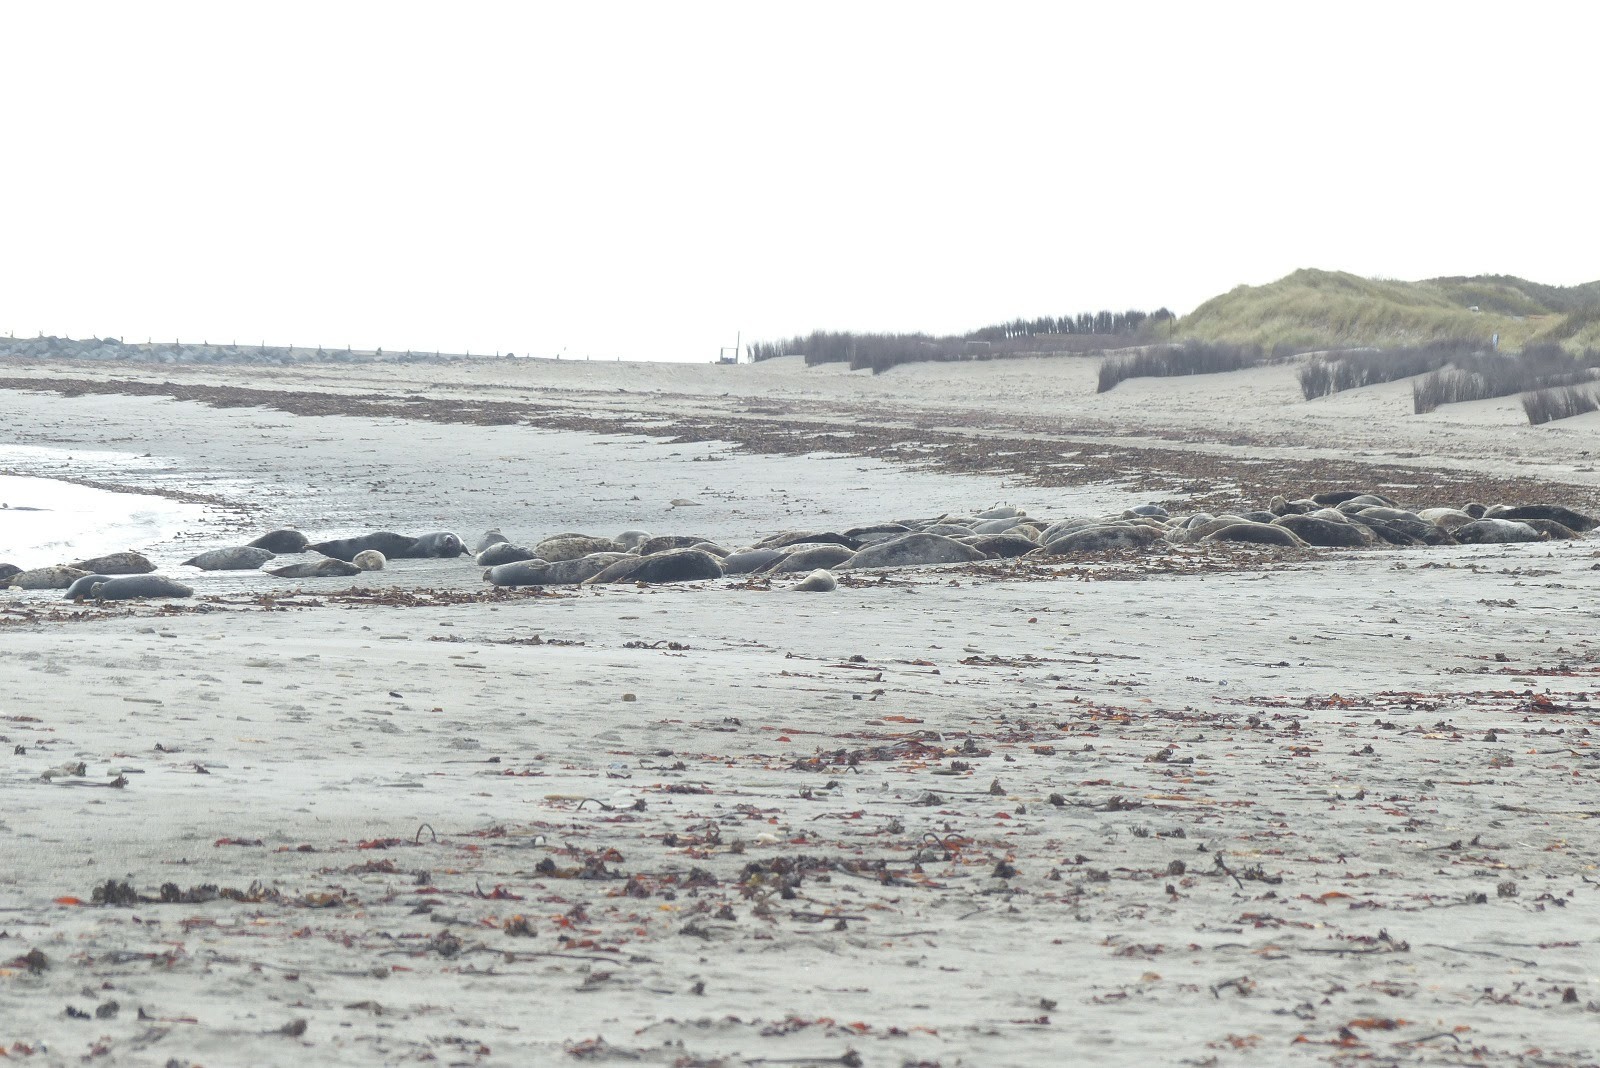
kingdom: Animalia
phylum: Chordata
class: Mammalia
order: Carnivora
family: Phocidae
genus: Halichoerus
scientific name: Halichoerus grypus
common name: Grey seal
